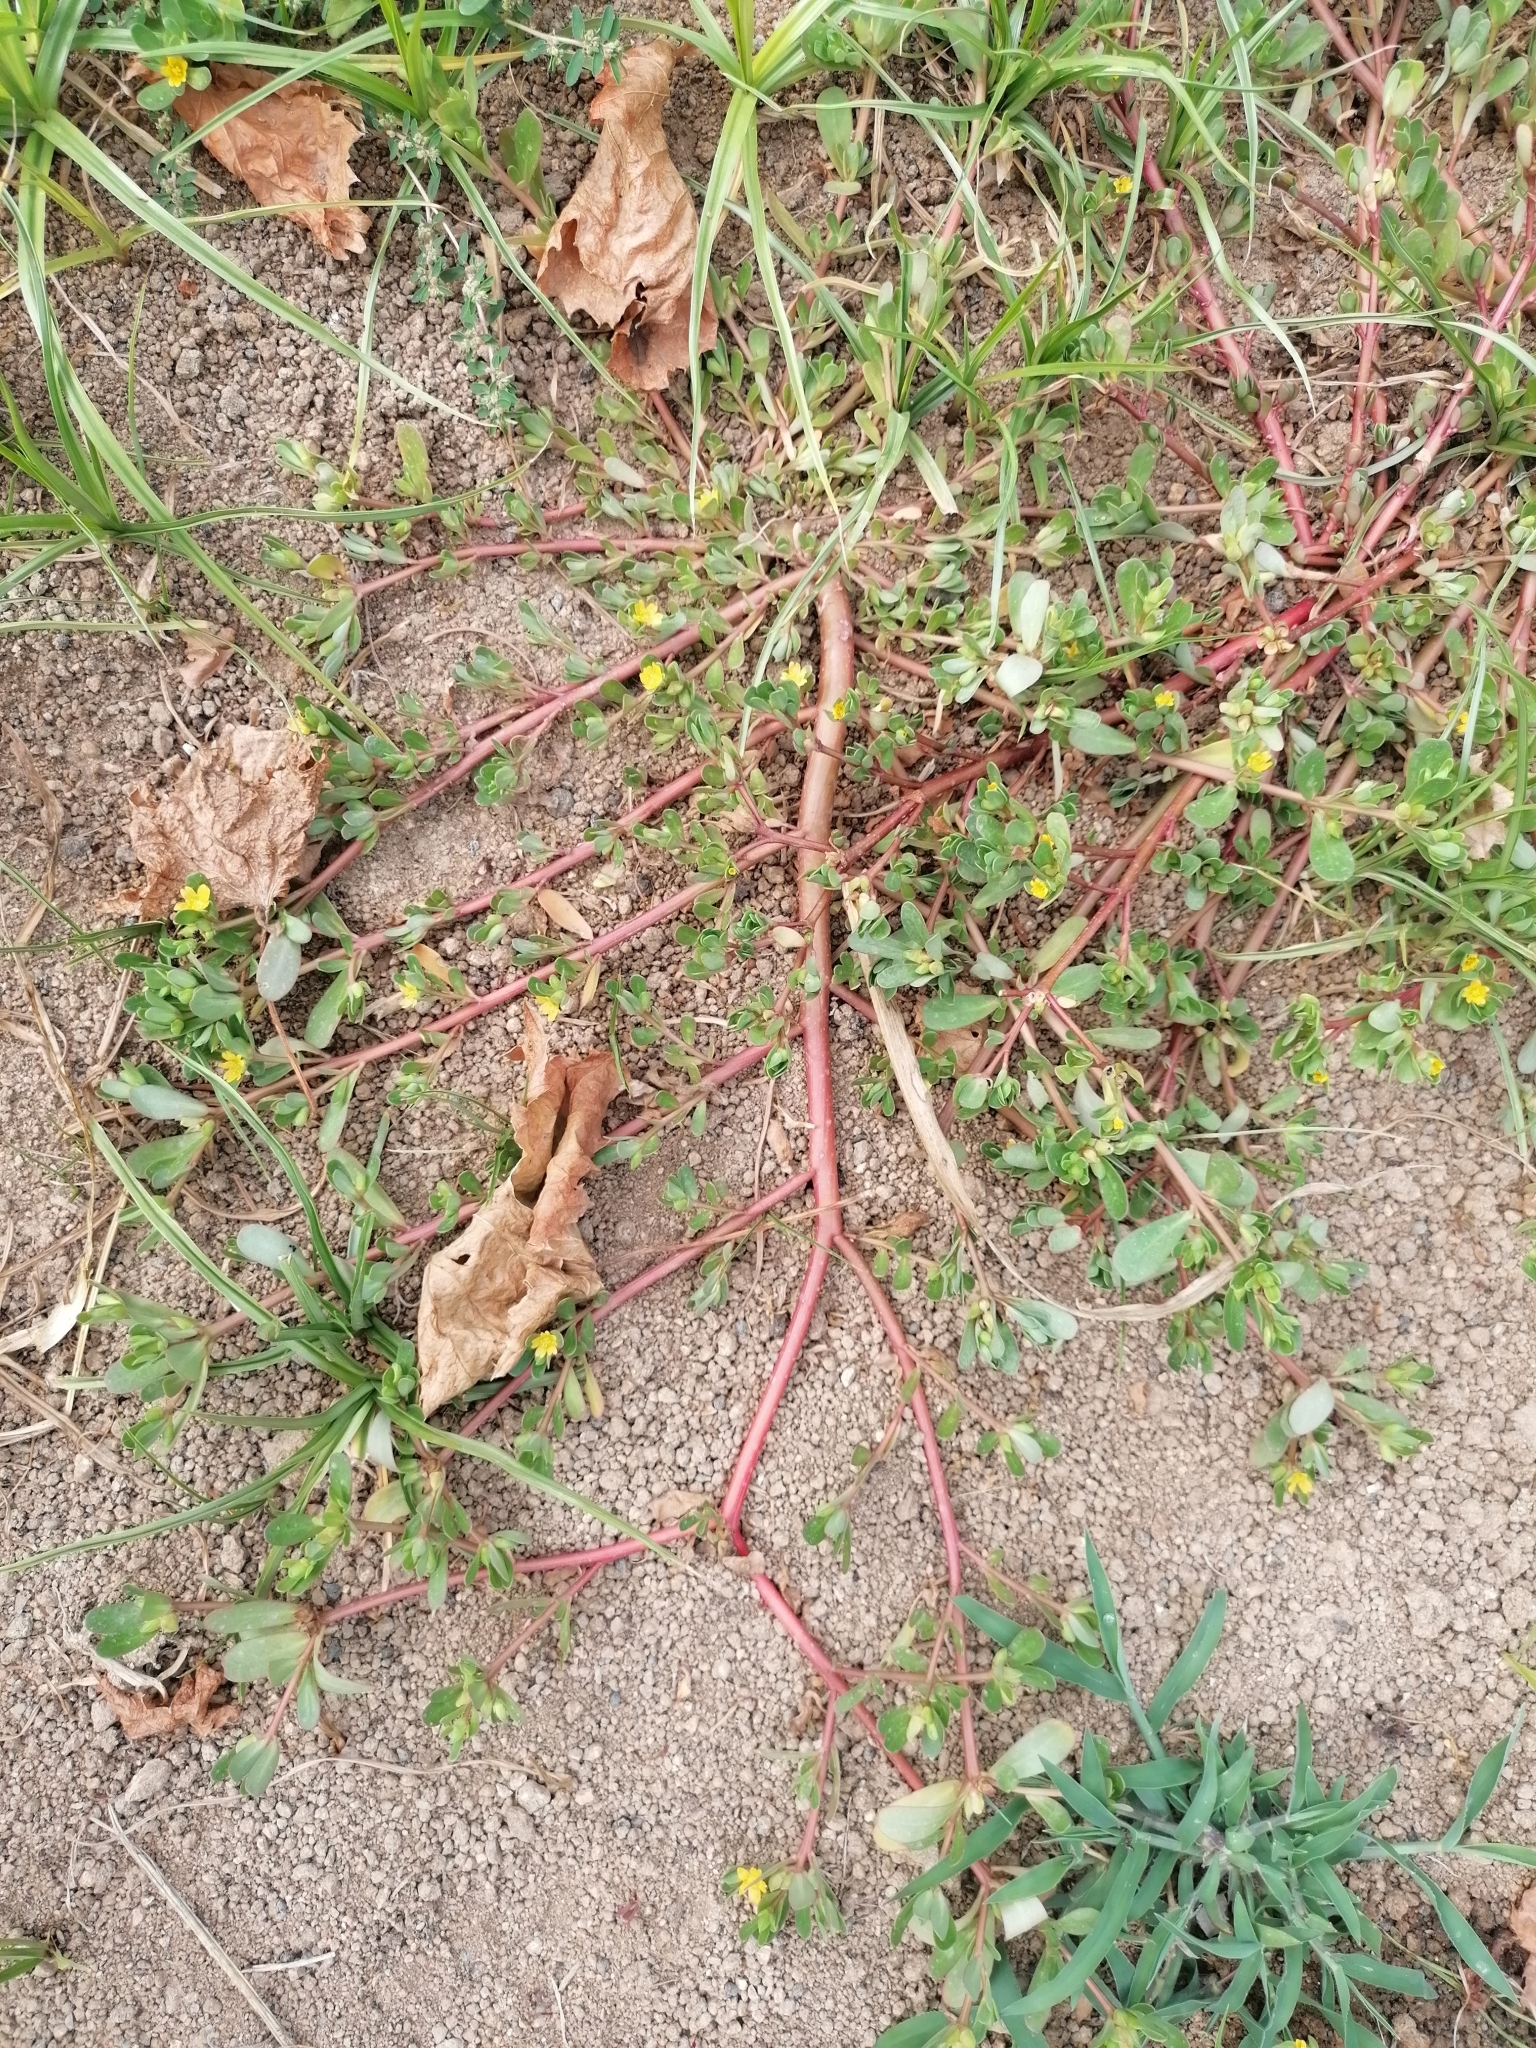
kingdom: Plantae
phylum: Tracheophyta
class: Magnoliopsida
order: Caryophyllales
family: Portulacaceae
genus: Portulaca
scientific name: Portulaca oleracea
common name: Common purslane
